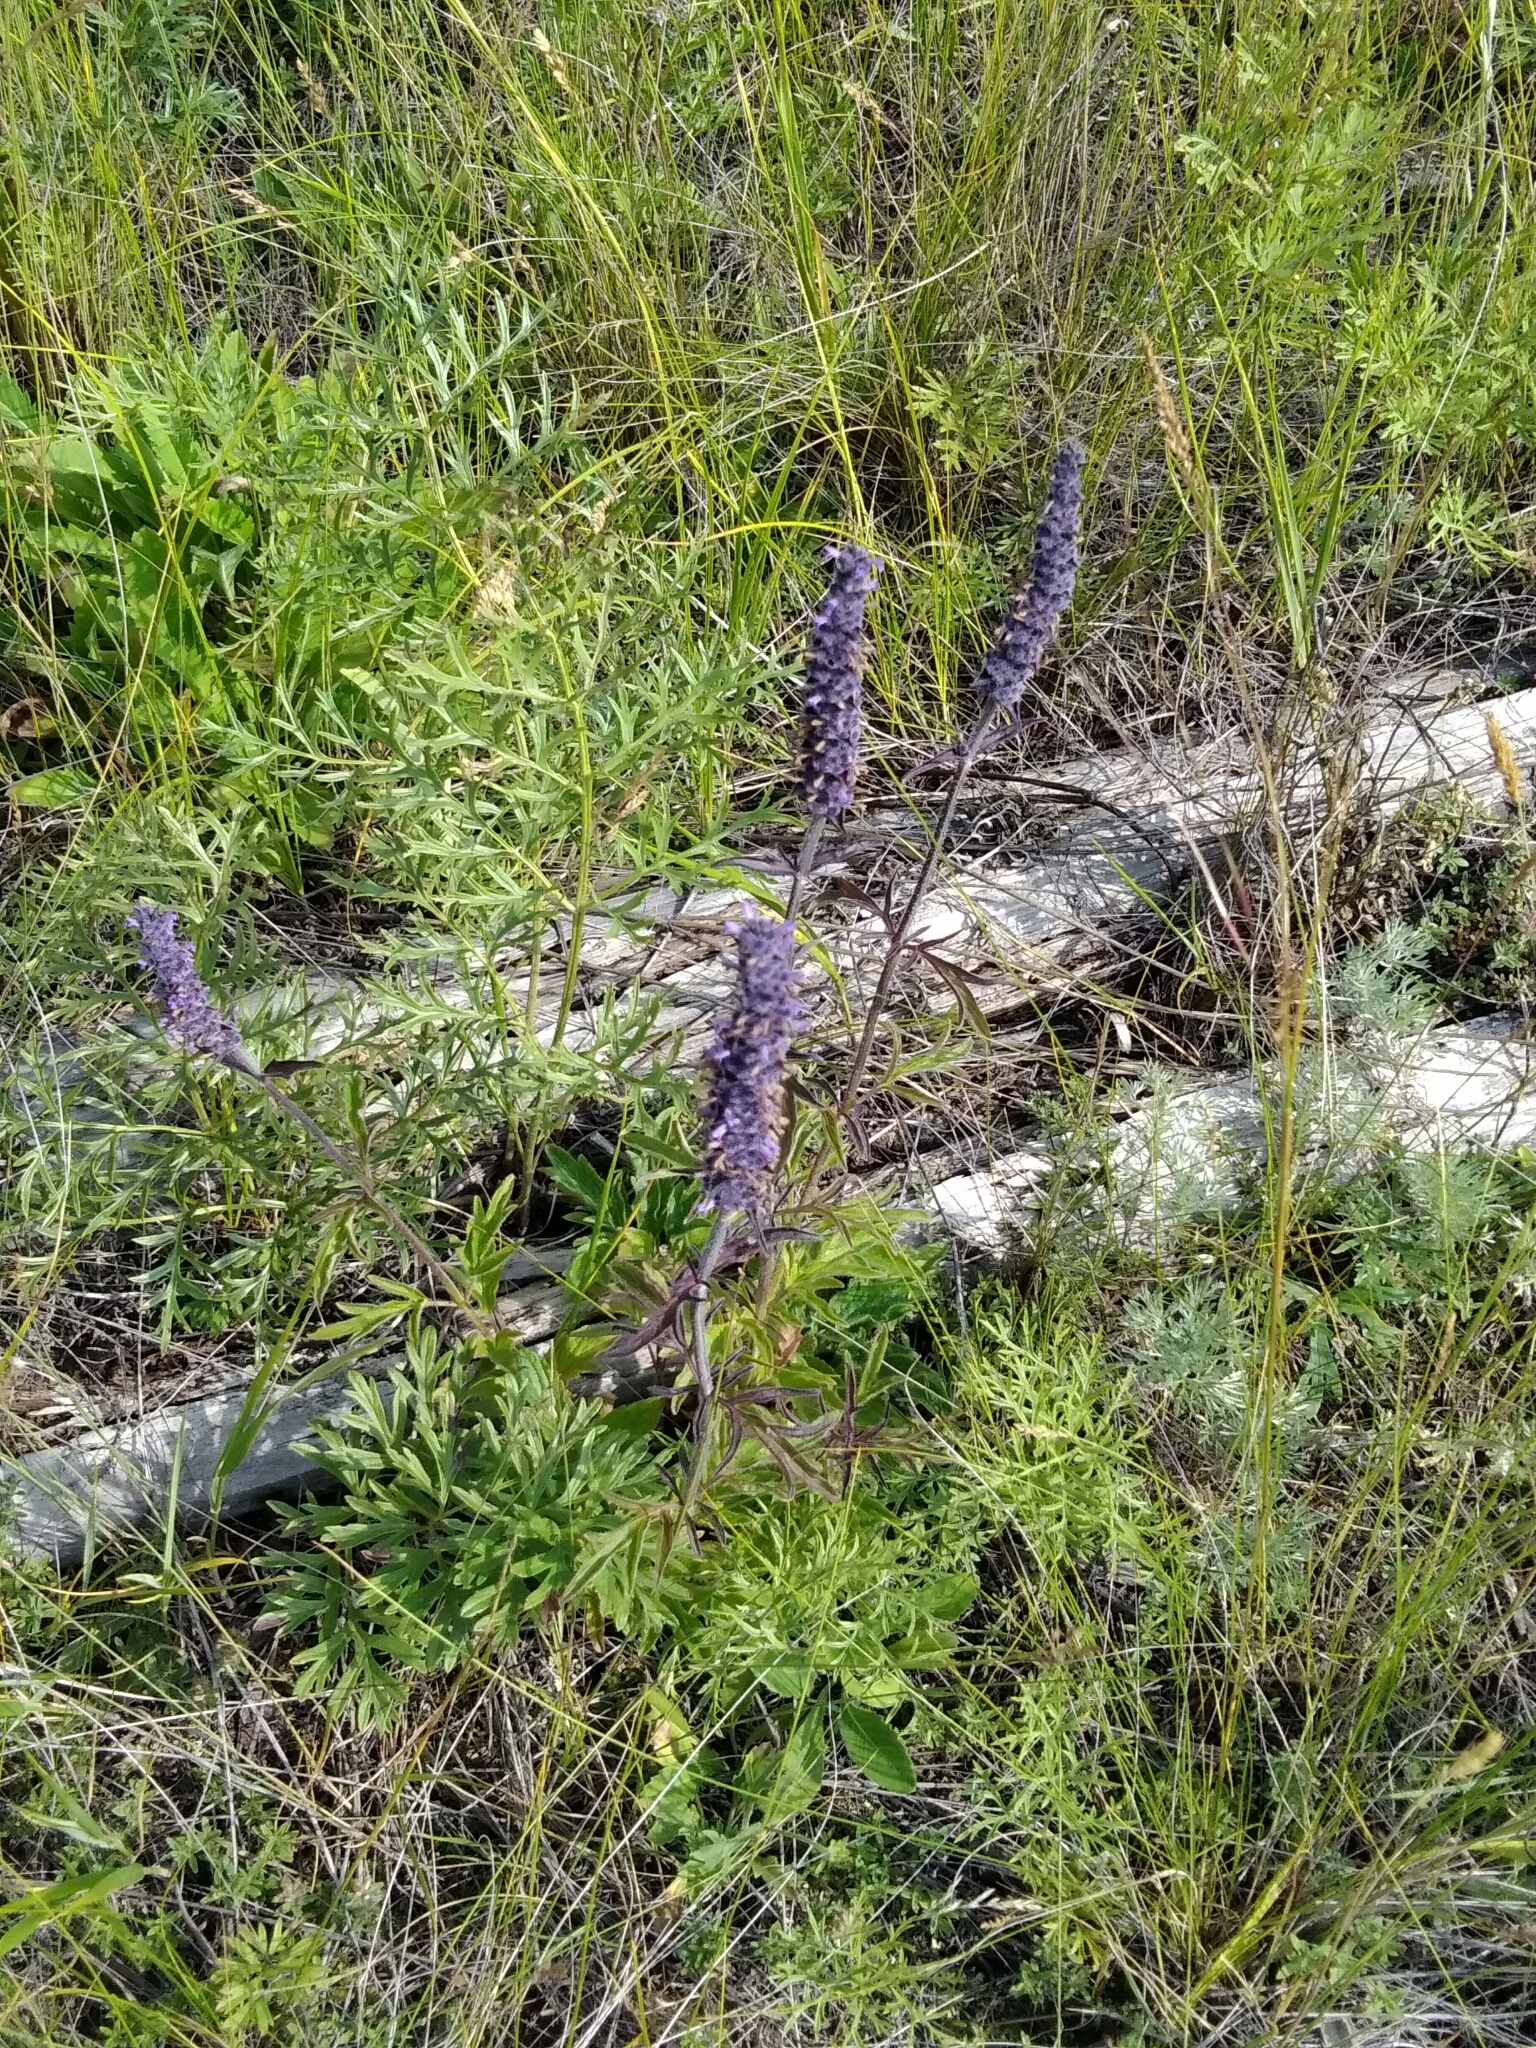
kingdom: Plantae
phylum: Tracheophyta
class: Magnoliopsida
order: Lamiales
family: Lamiaceae
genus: Nepeta
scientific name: Nepeta multifida
